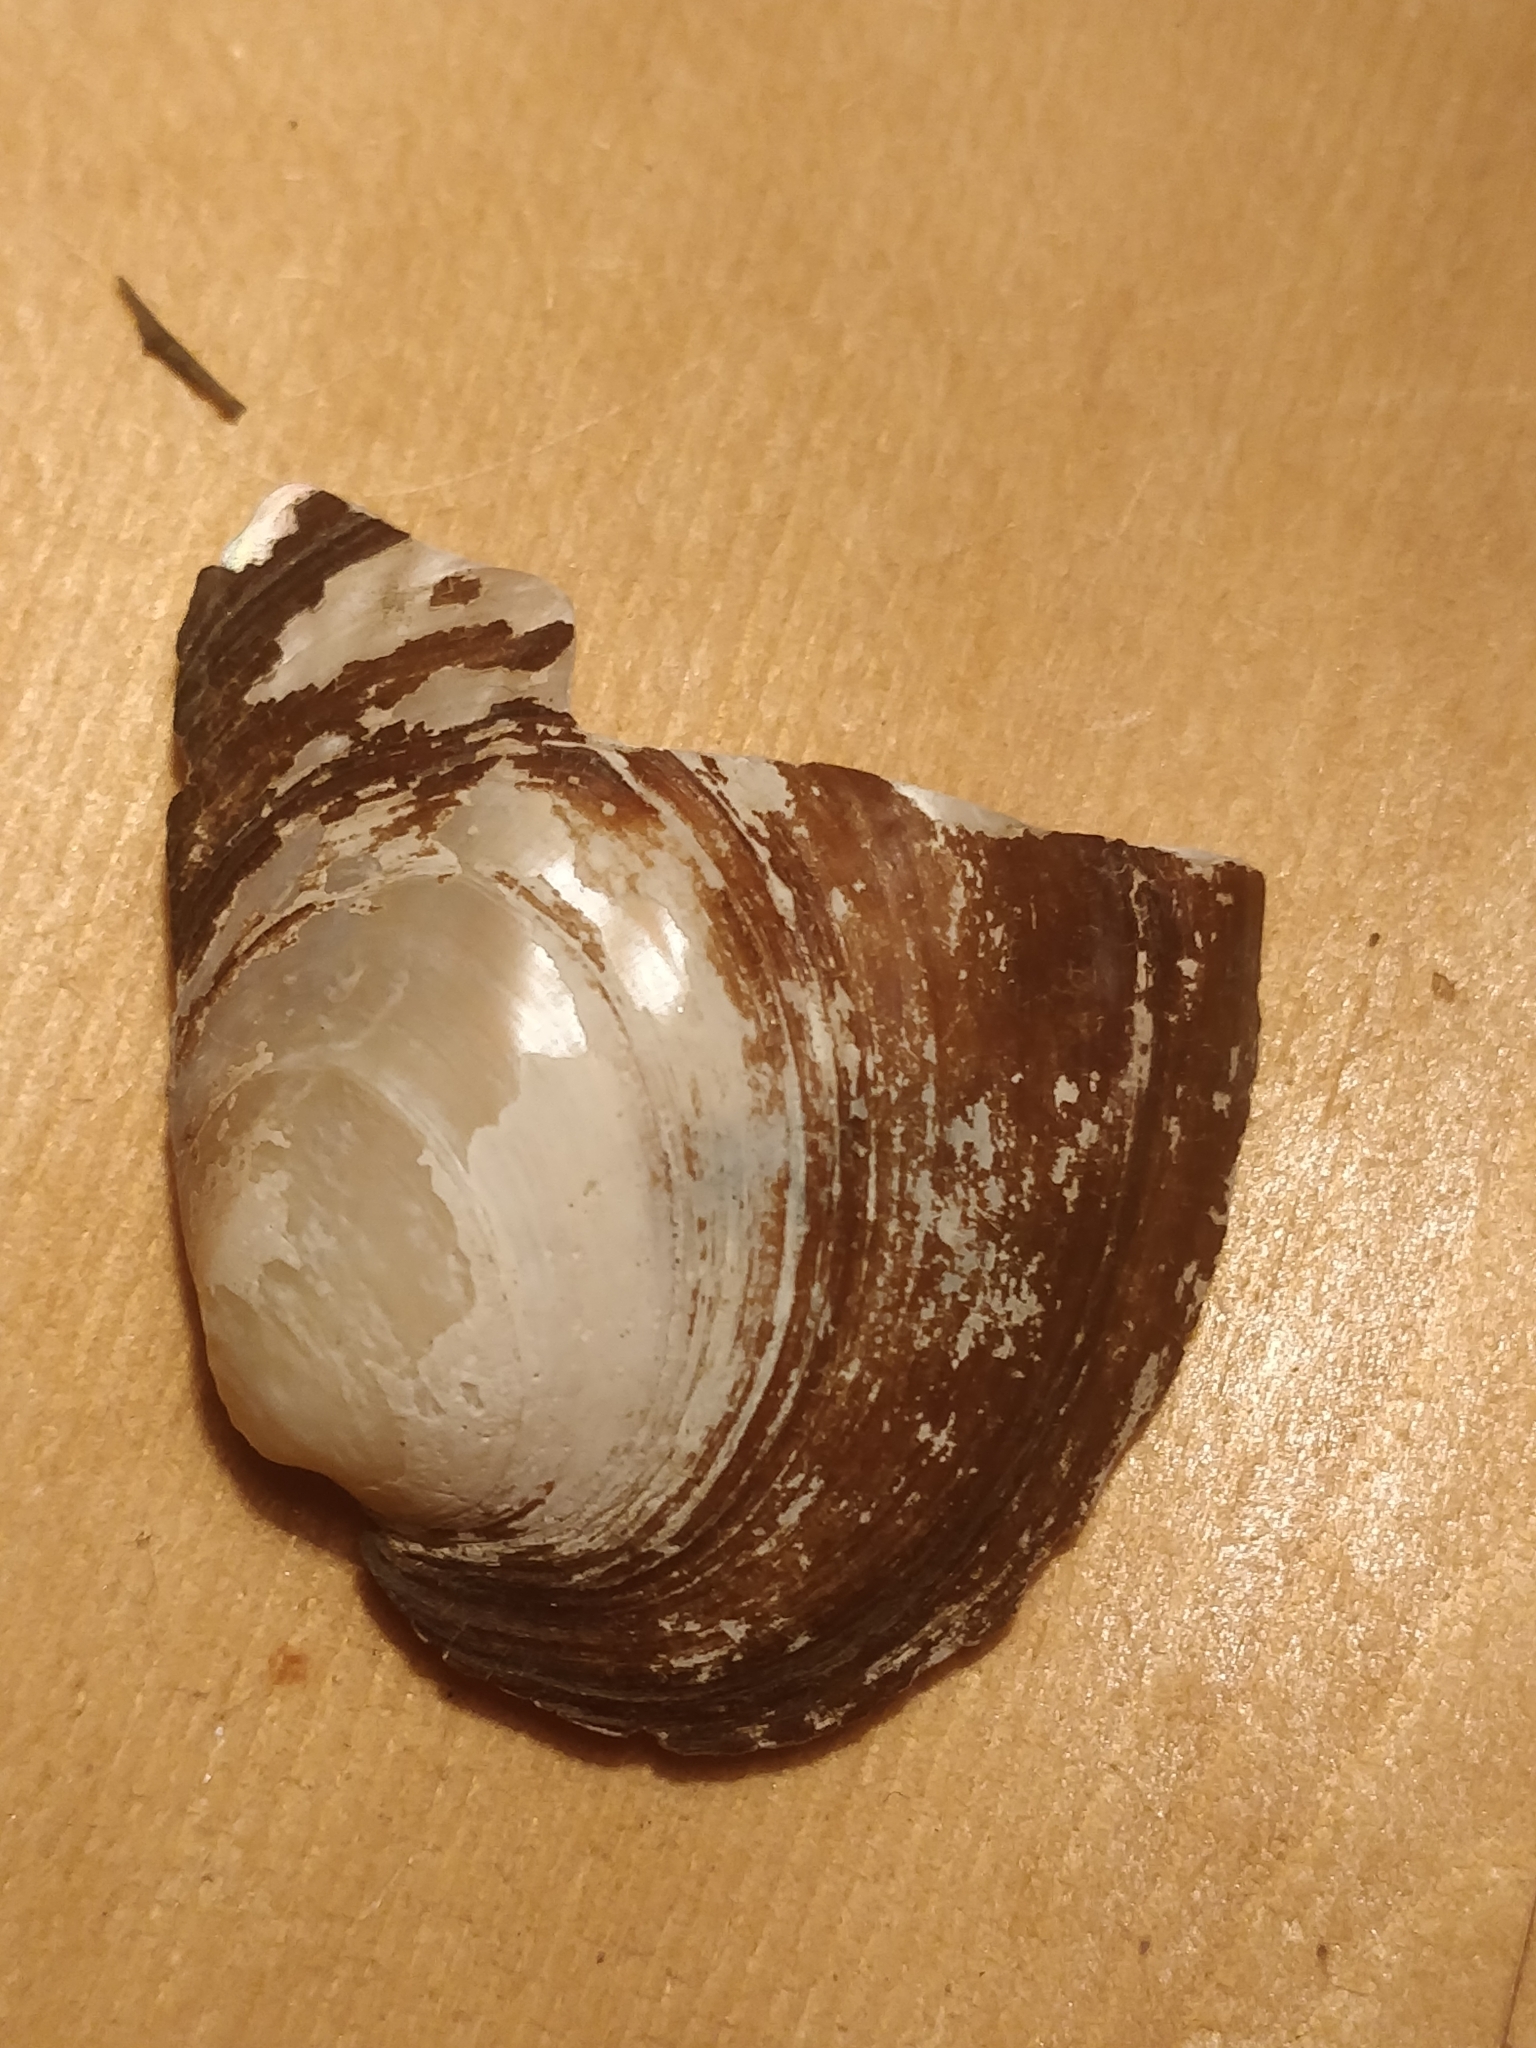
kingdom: Animalia
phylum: Mollusca
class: Bivalvia
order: Unionida
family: Unionidae
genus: Amblema
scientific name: Amblema plicata
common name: Threeridge
